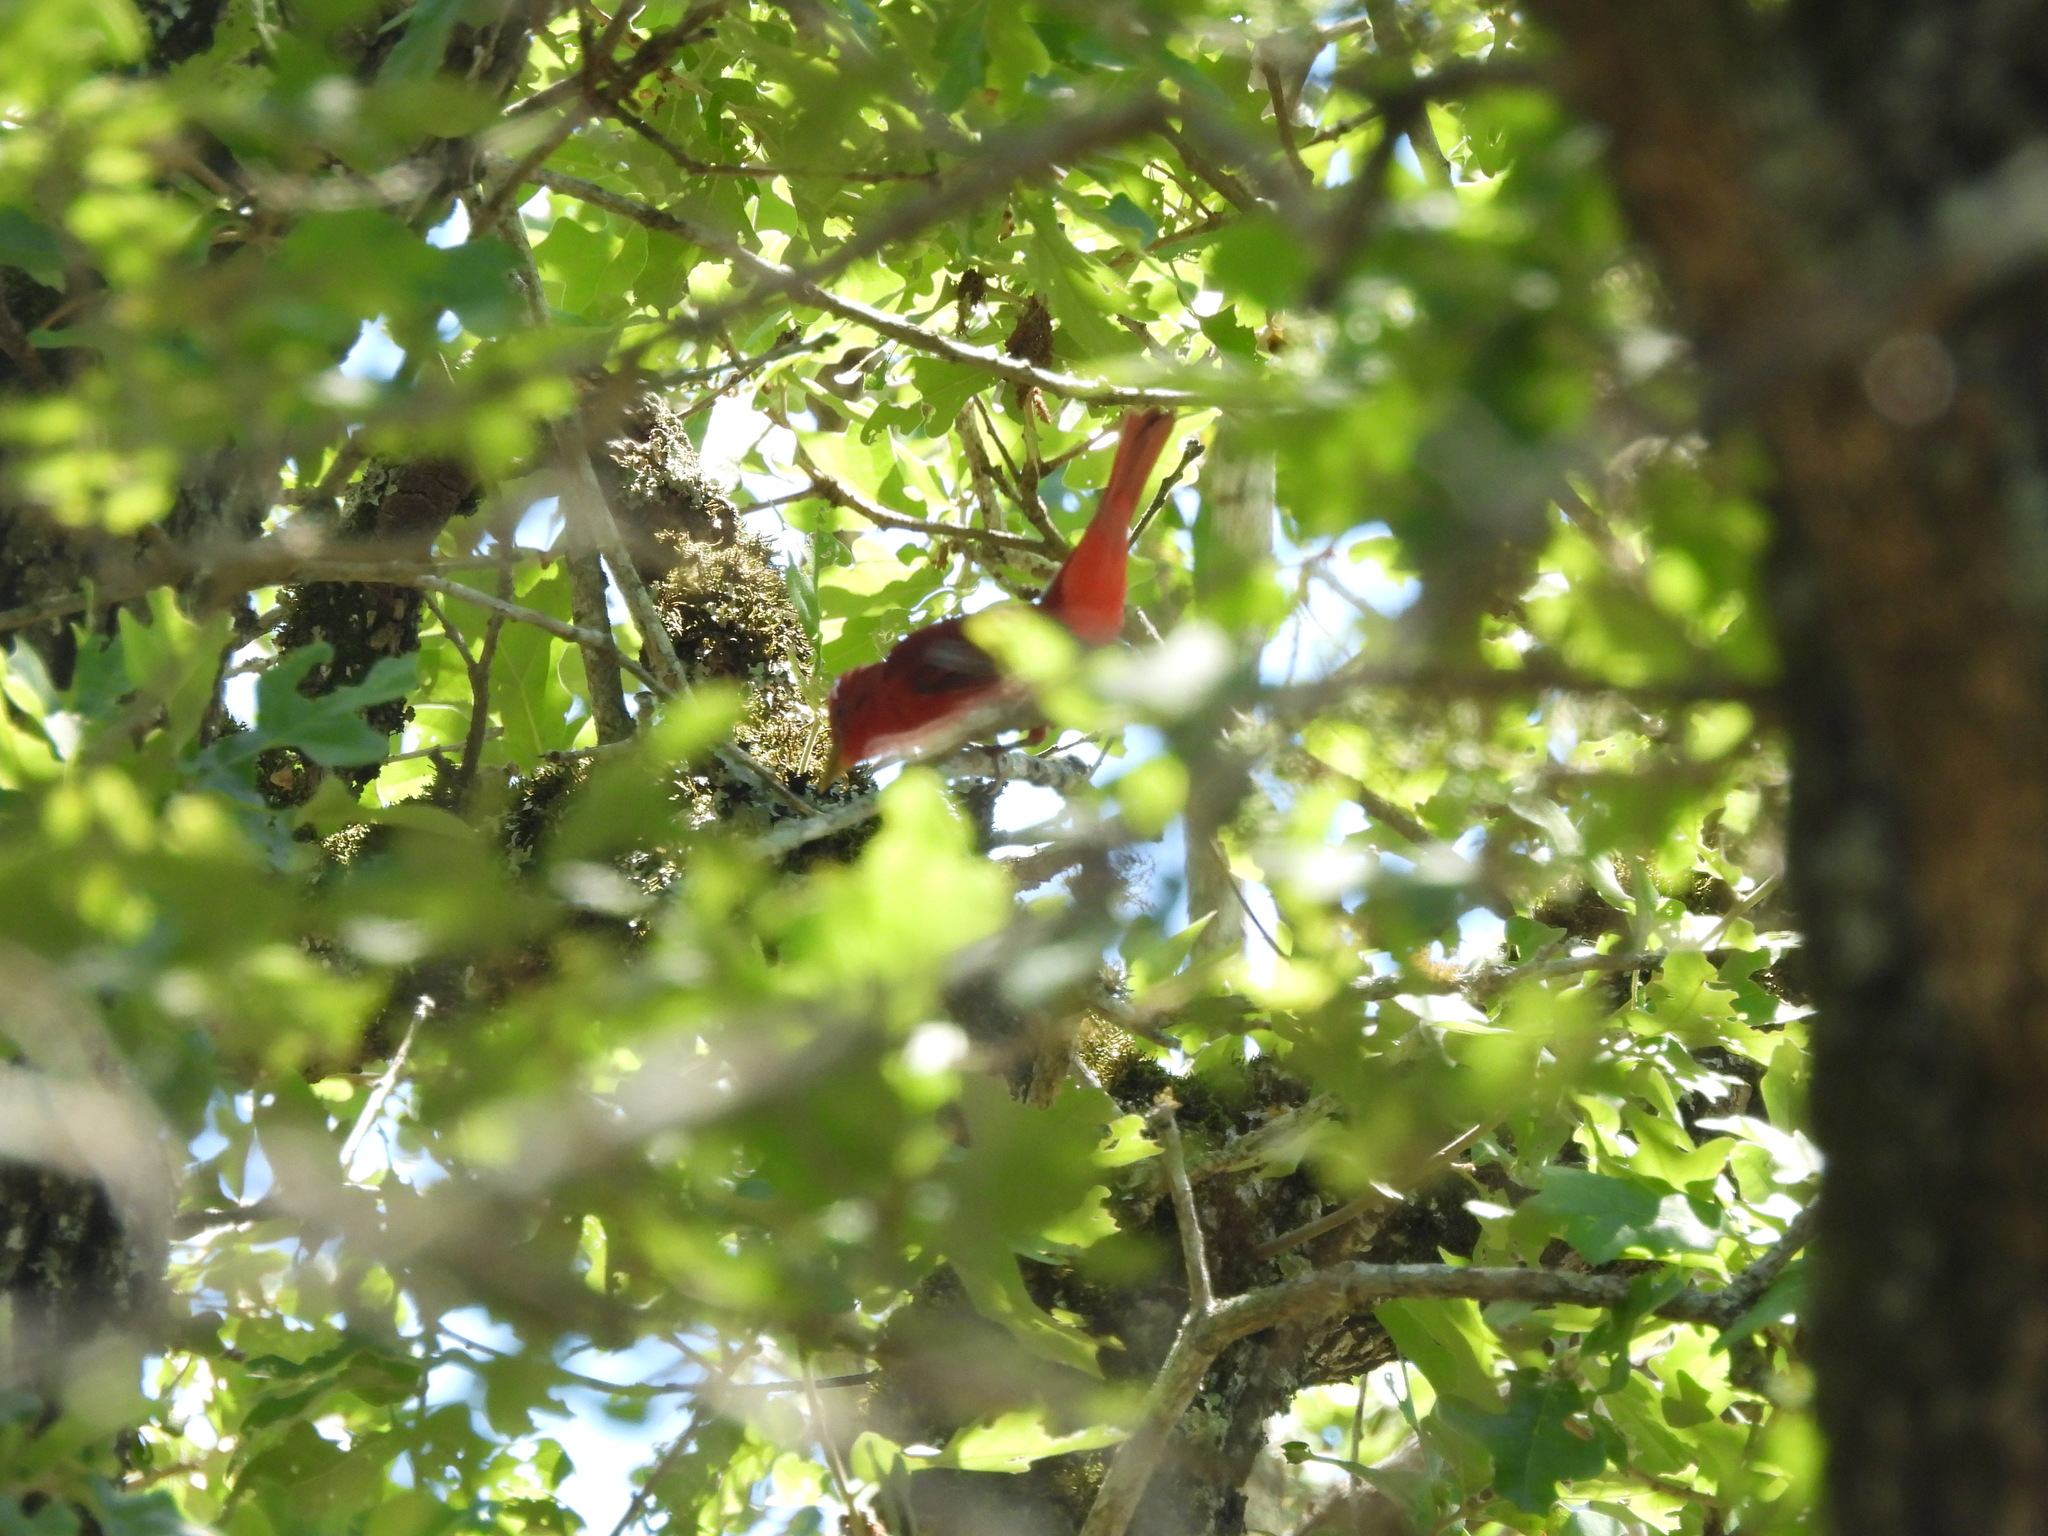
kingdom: Animalia
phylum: Chordata
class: Aves
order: Passeriformes
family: Cardinalidae
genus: Piranga
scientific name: Piranga rubra
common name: Summer tanager
